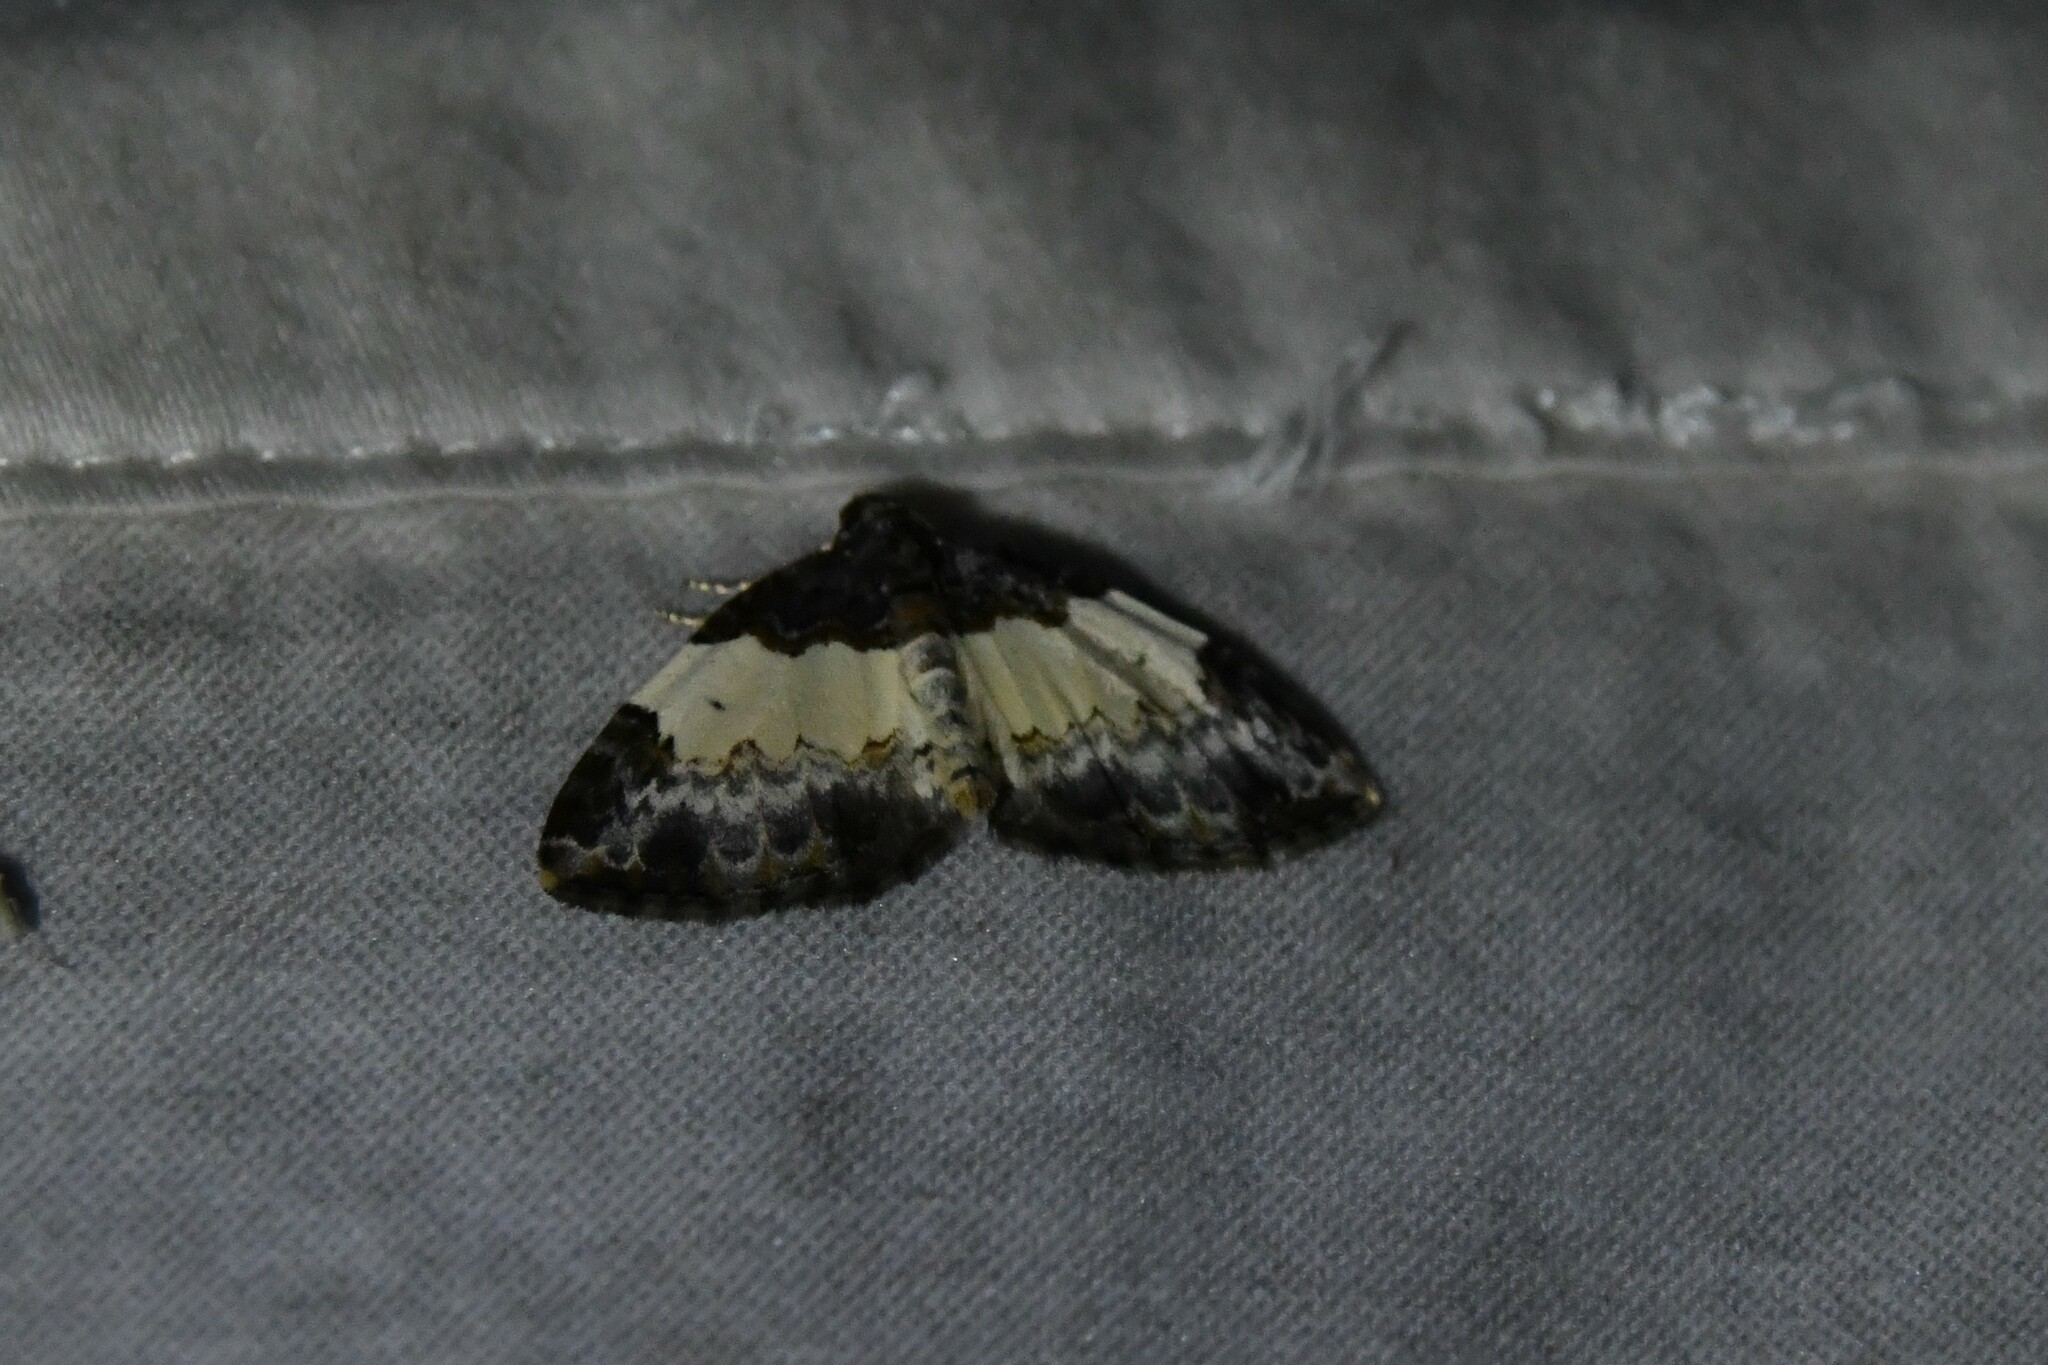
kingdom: Animalia
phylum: Arthropoda
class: Insecta
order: Lepidoptera
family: Geometridae
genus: Mesoleuca
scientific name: Mesoleuca ruficillata
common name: White-ribboned carpet moth
